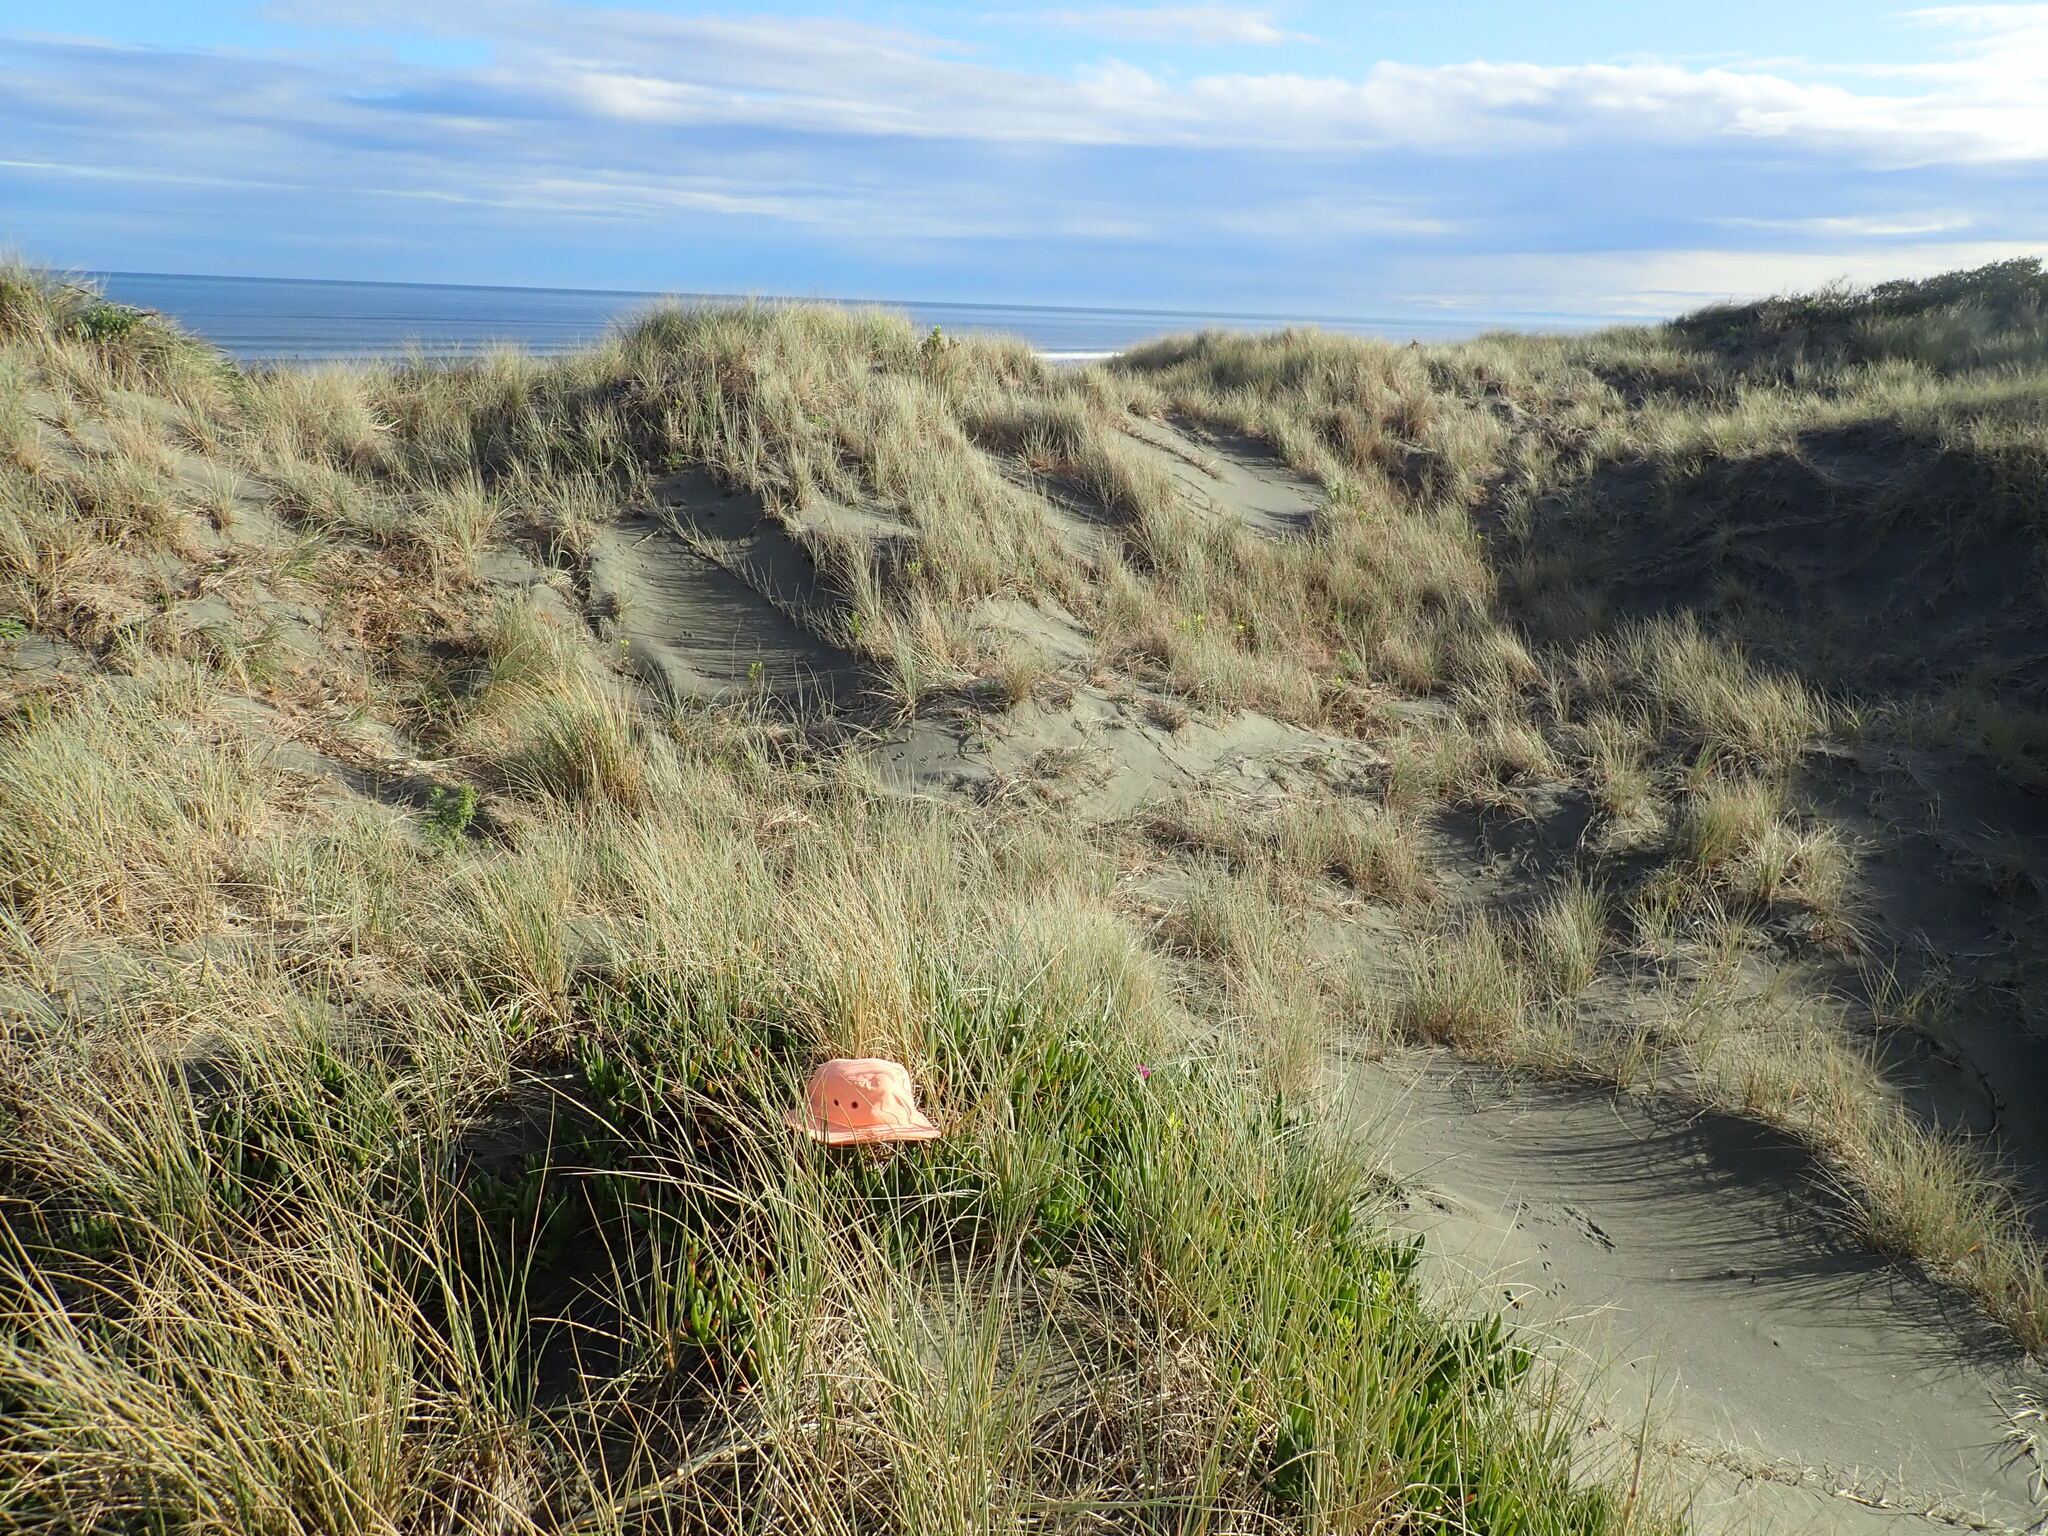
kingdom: Plantae
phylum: Tracheophyta
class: Magnoliopsida
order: Caryophyllales
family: Aizoaceae
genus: Carpobrotus
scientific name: Carpobrotus chilensis
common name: Sea fig
